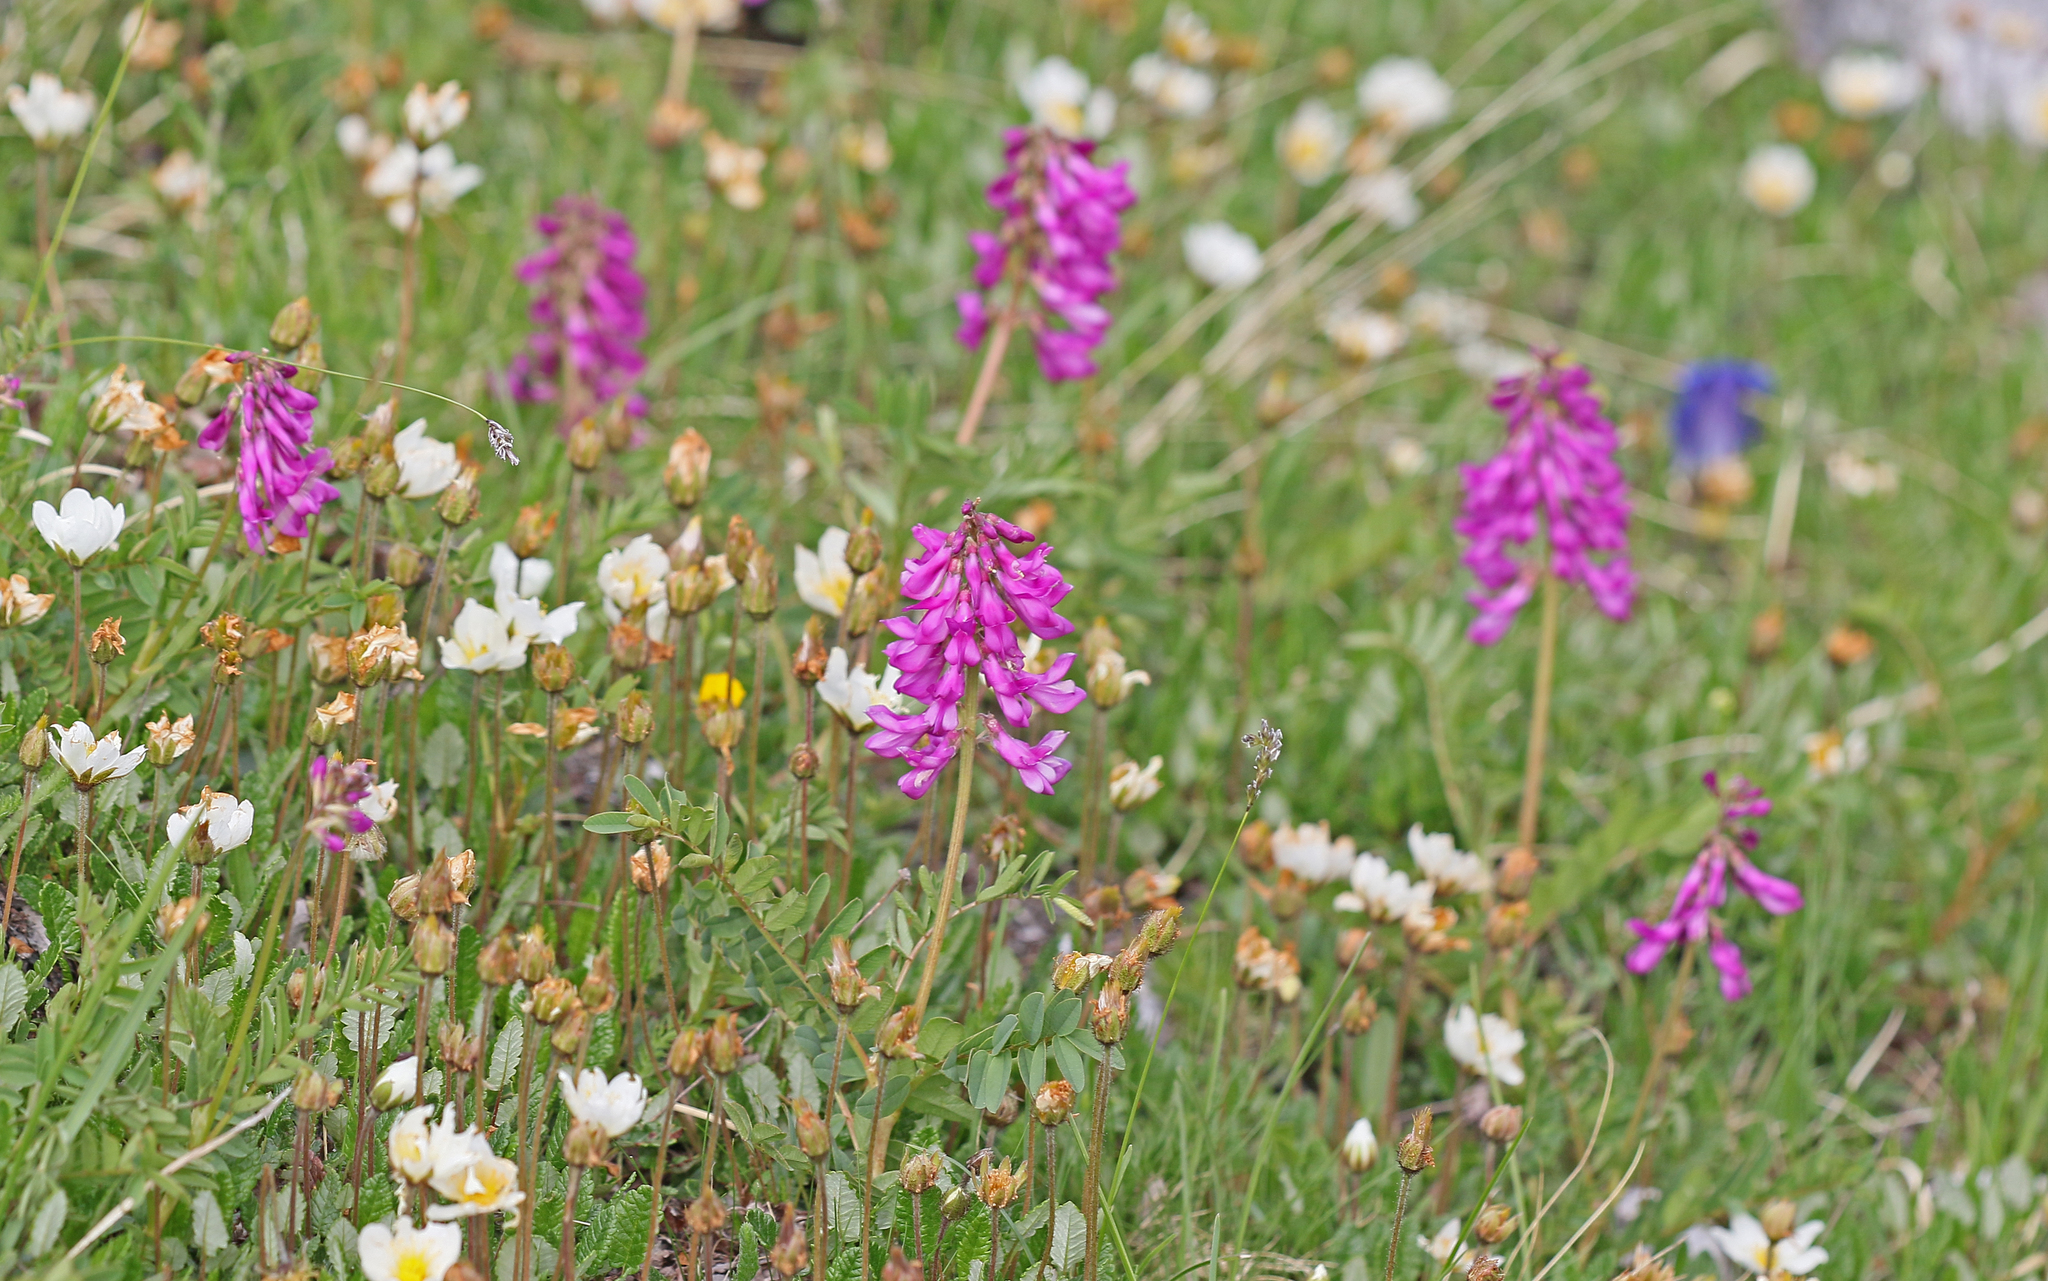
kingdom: Plantae
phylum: Tracheophyta
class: Magnoliopsida
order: Fabales
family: Fabaceae
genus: Hedysarum
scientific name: Hedysarum hedysaroides
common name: Alpine french-honeysuckle
